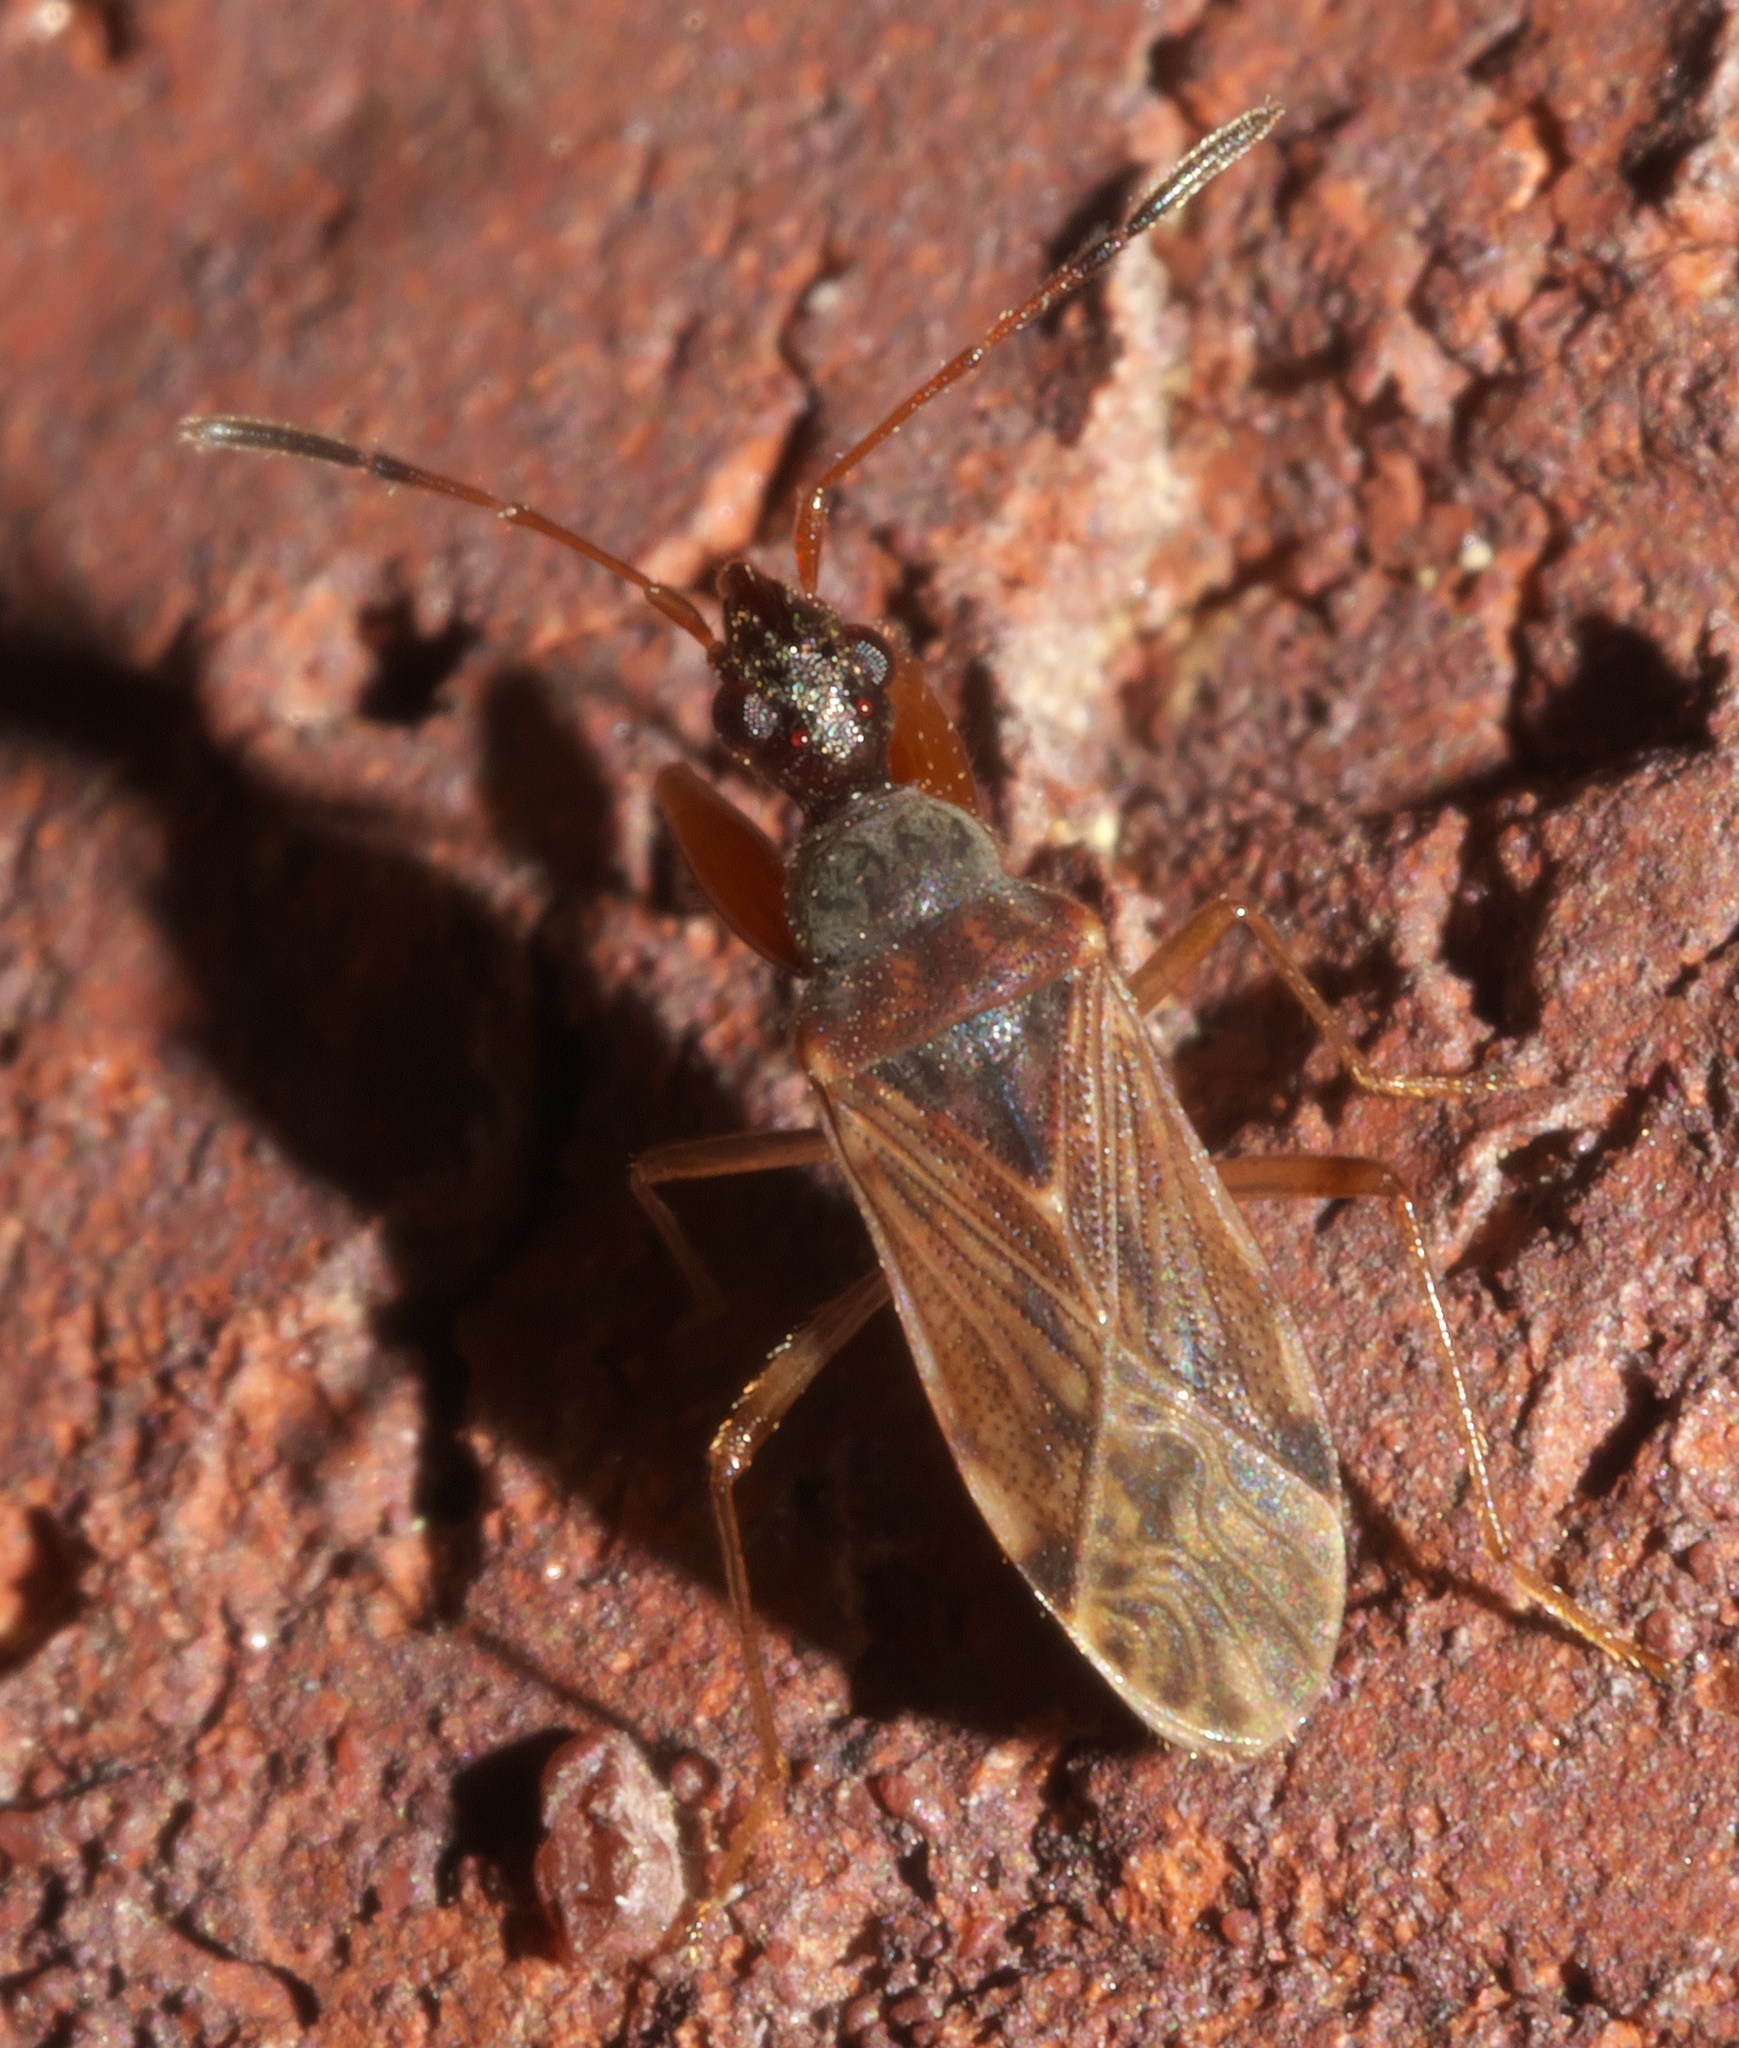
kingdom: Animalia
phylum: Arthropoda
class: Insecta
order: Hemiptera
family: Rhyparochromidae
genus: Heraeus
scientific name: Heraeus plebejus
